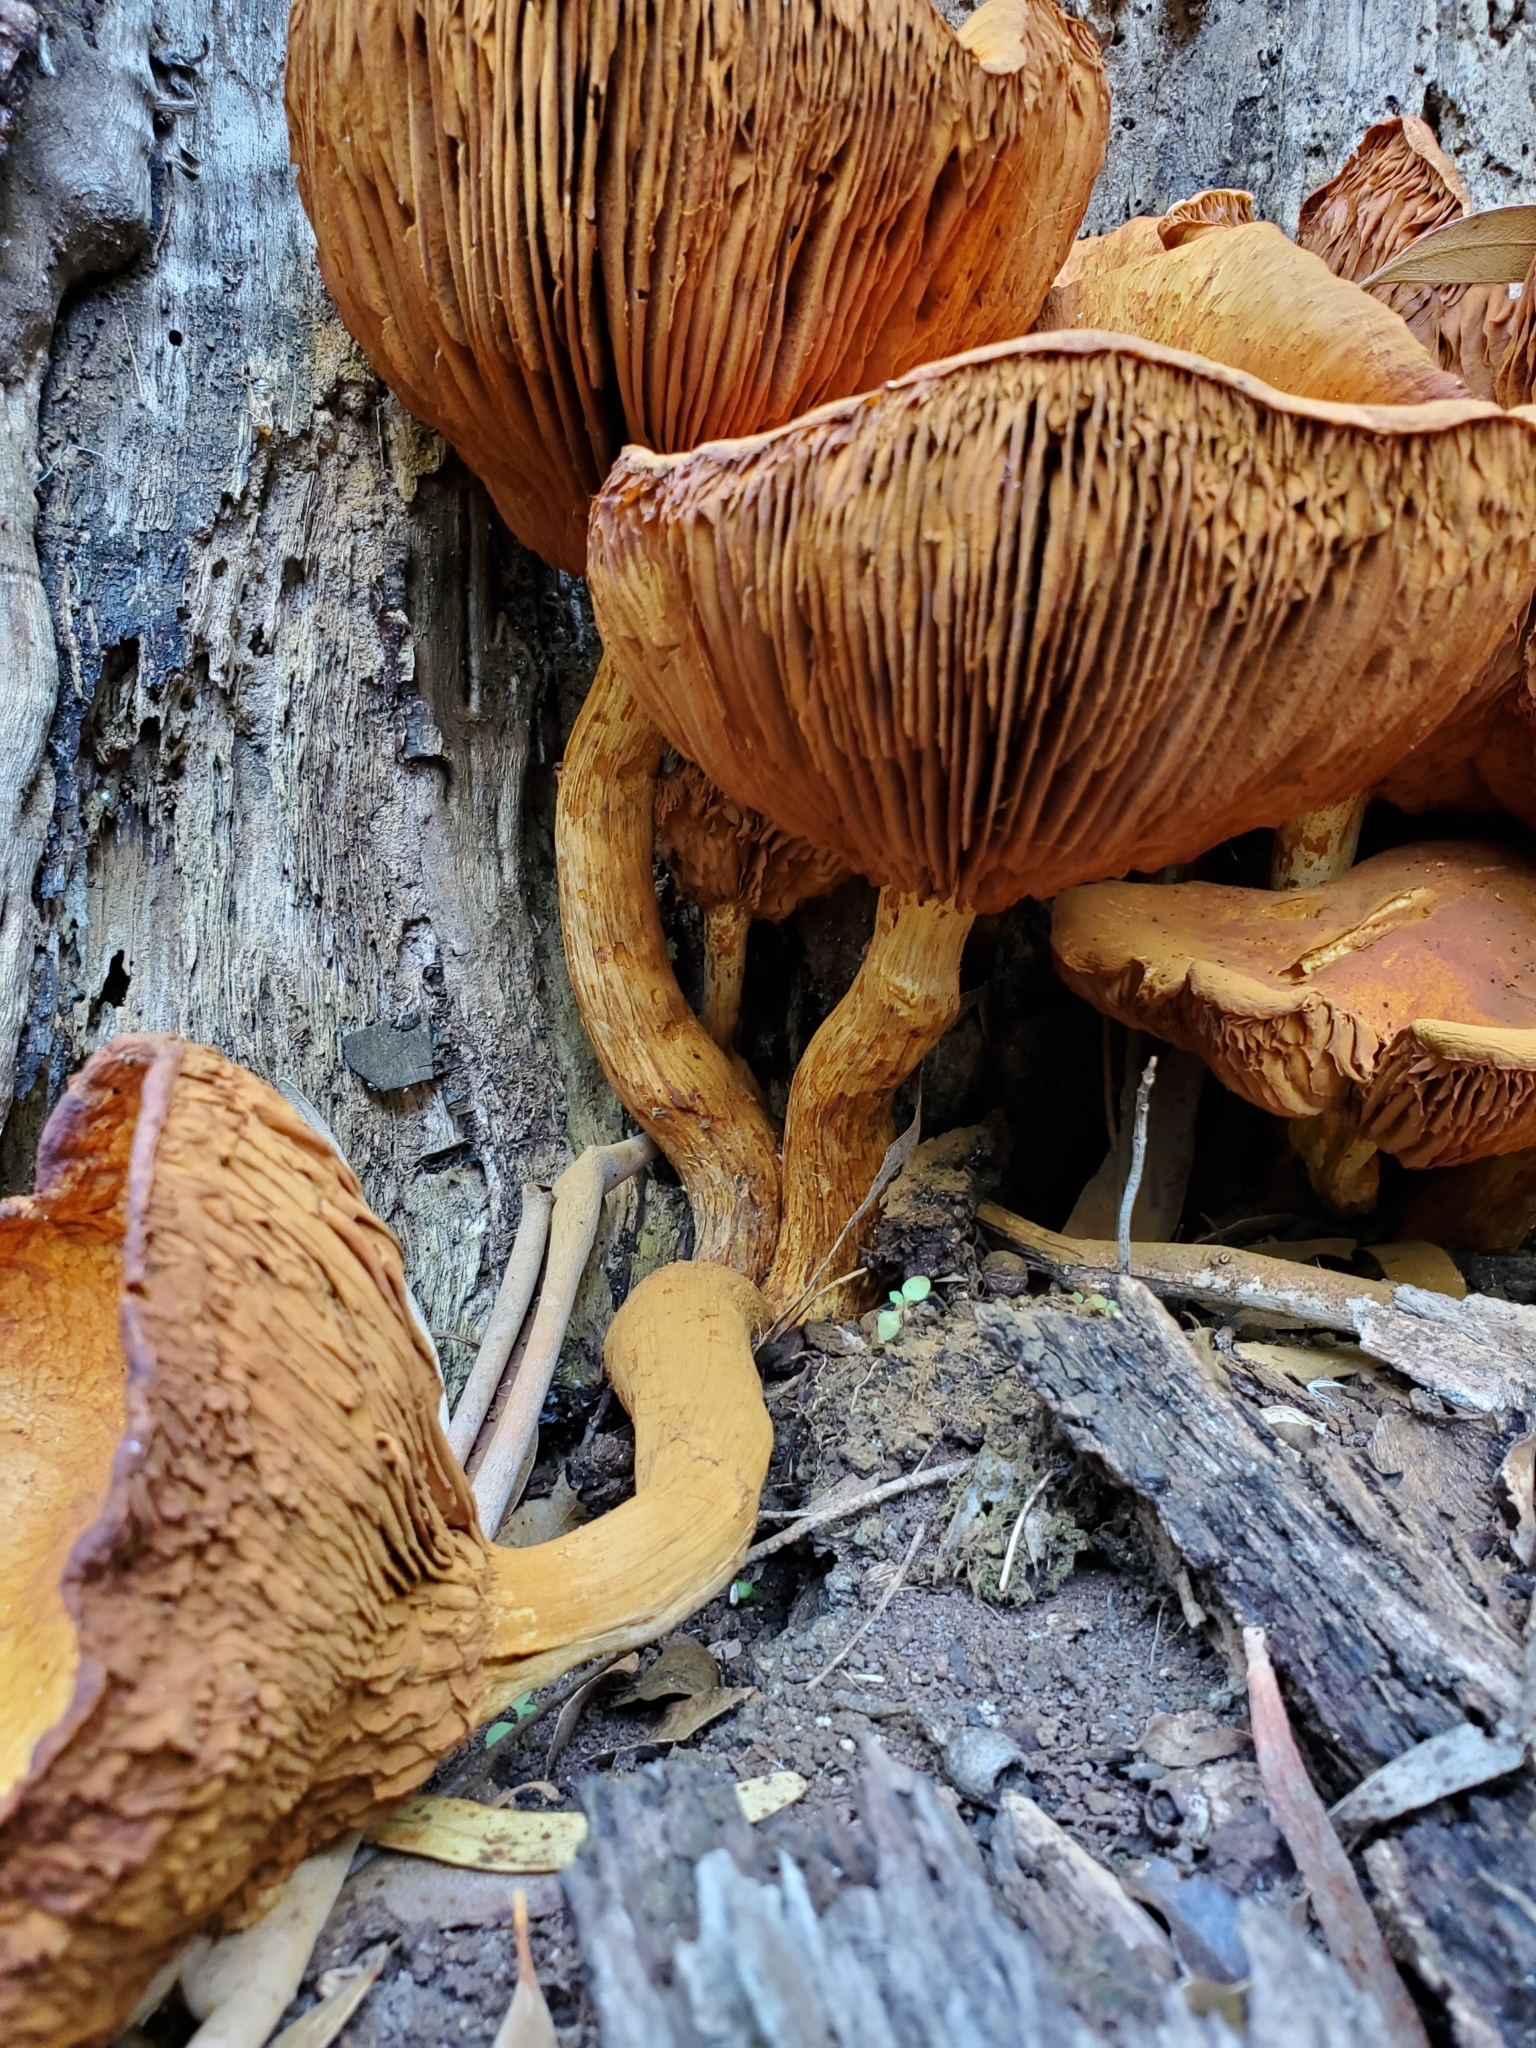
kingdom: Fungi
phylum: Basidiomycota
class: Agaricomycetes
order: Agaricales
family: Hymenogastraceae
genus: Gymnopilus
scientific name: Gymnopilus junonius
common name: Spectacular rustgill
